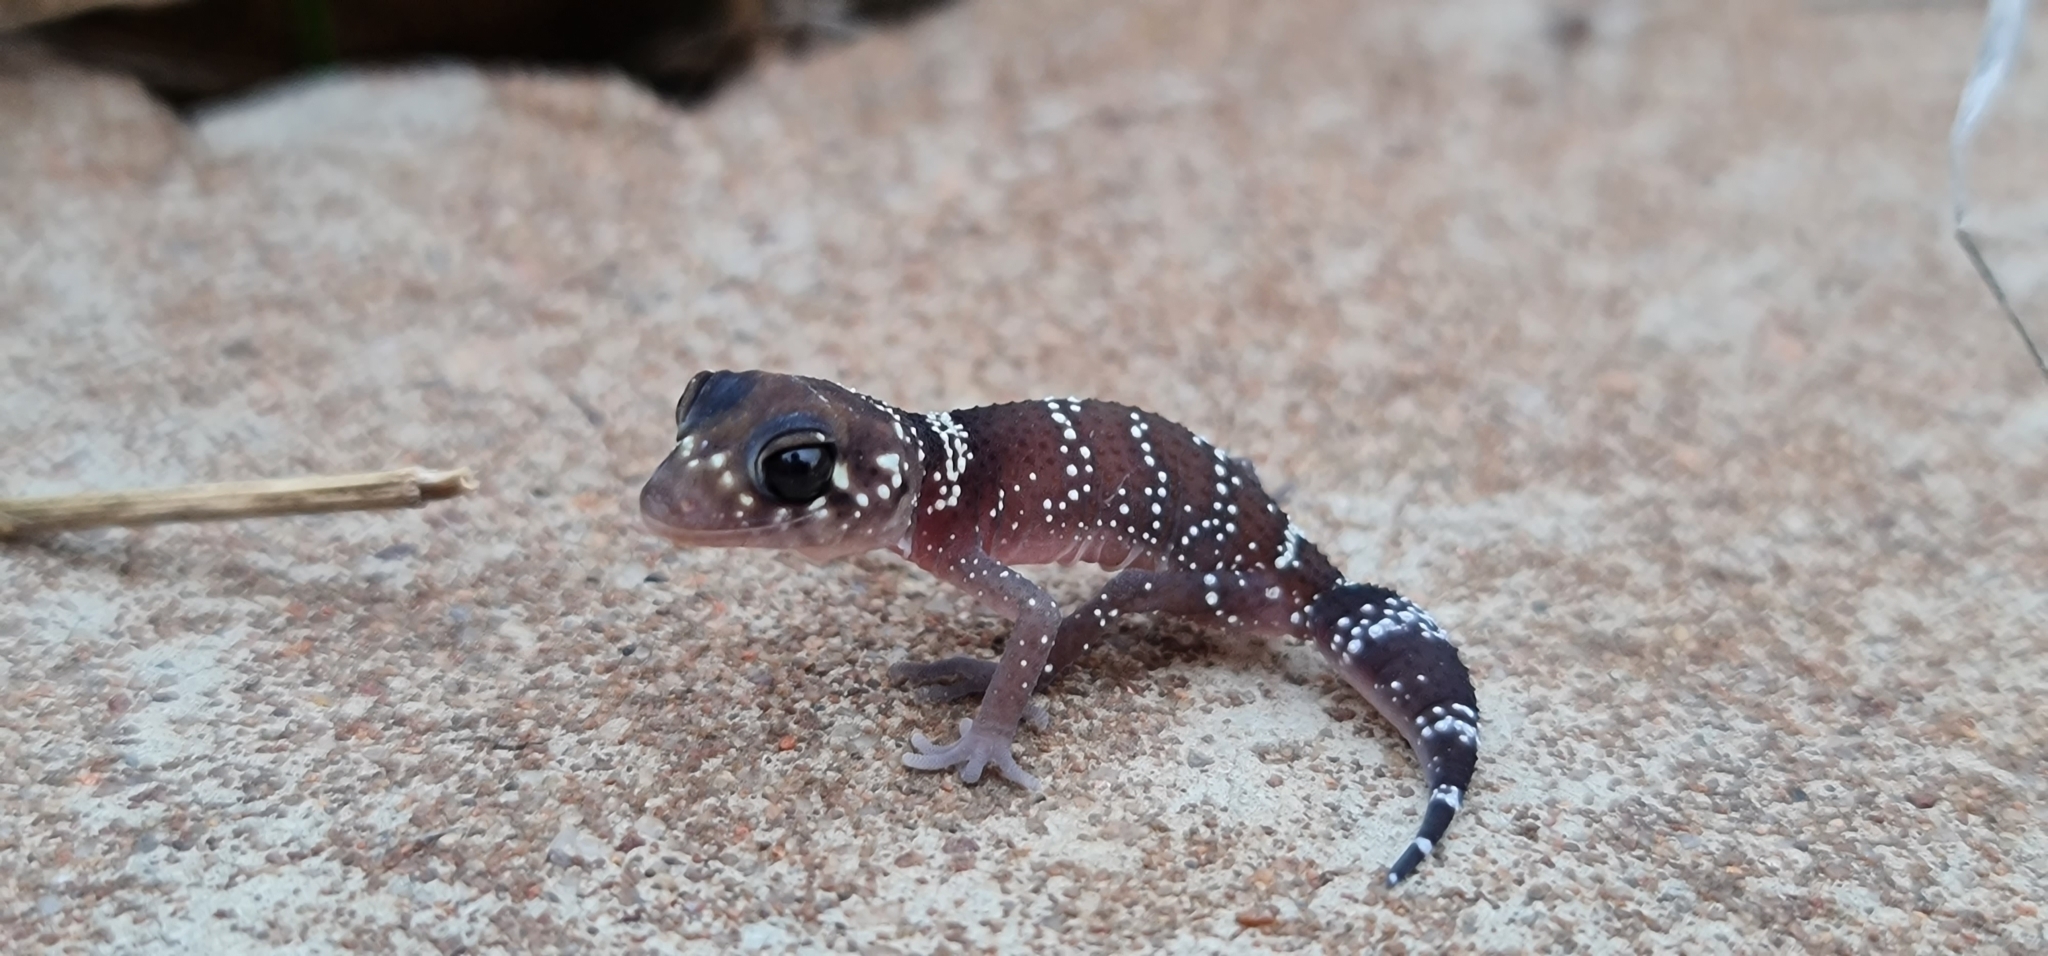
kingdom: Animalia
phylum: Chordata
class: Squamata
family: Carphodactylidae
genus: Underwoodisaurus
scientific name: Underwoodisaurus milii
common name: Barking gecko
